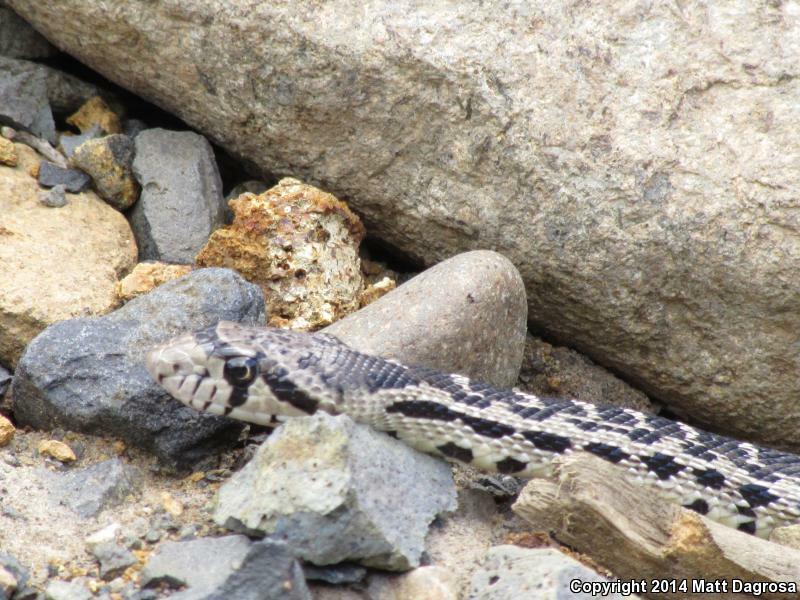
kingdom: Animalia
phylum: Chordata
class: Squamata
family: Colubridae
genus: Pituophis
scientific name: Pituophis catenifer
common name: Gopher snake
